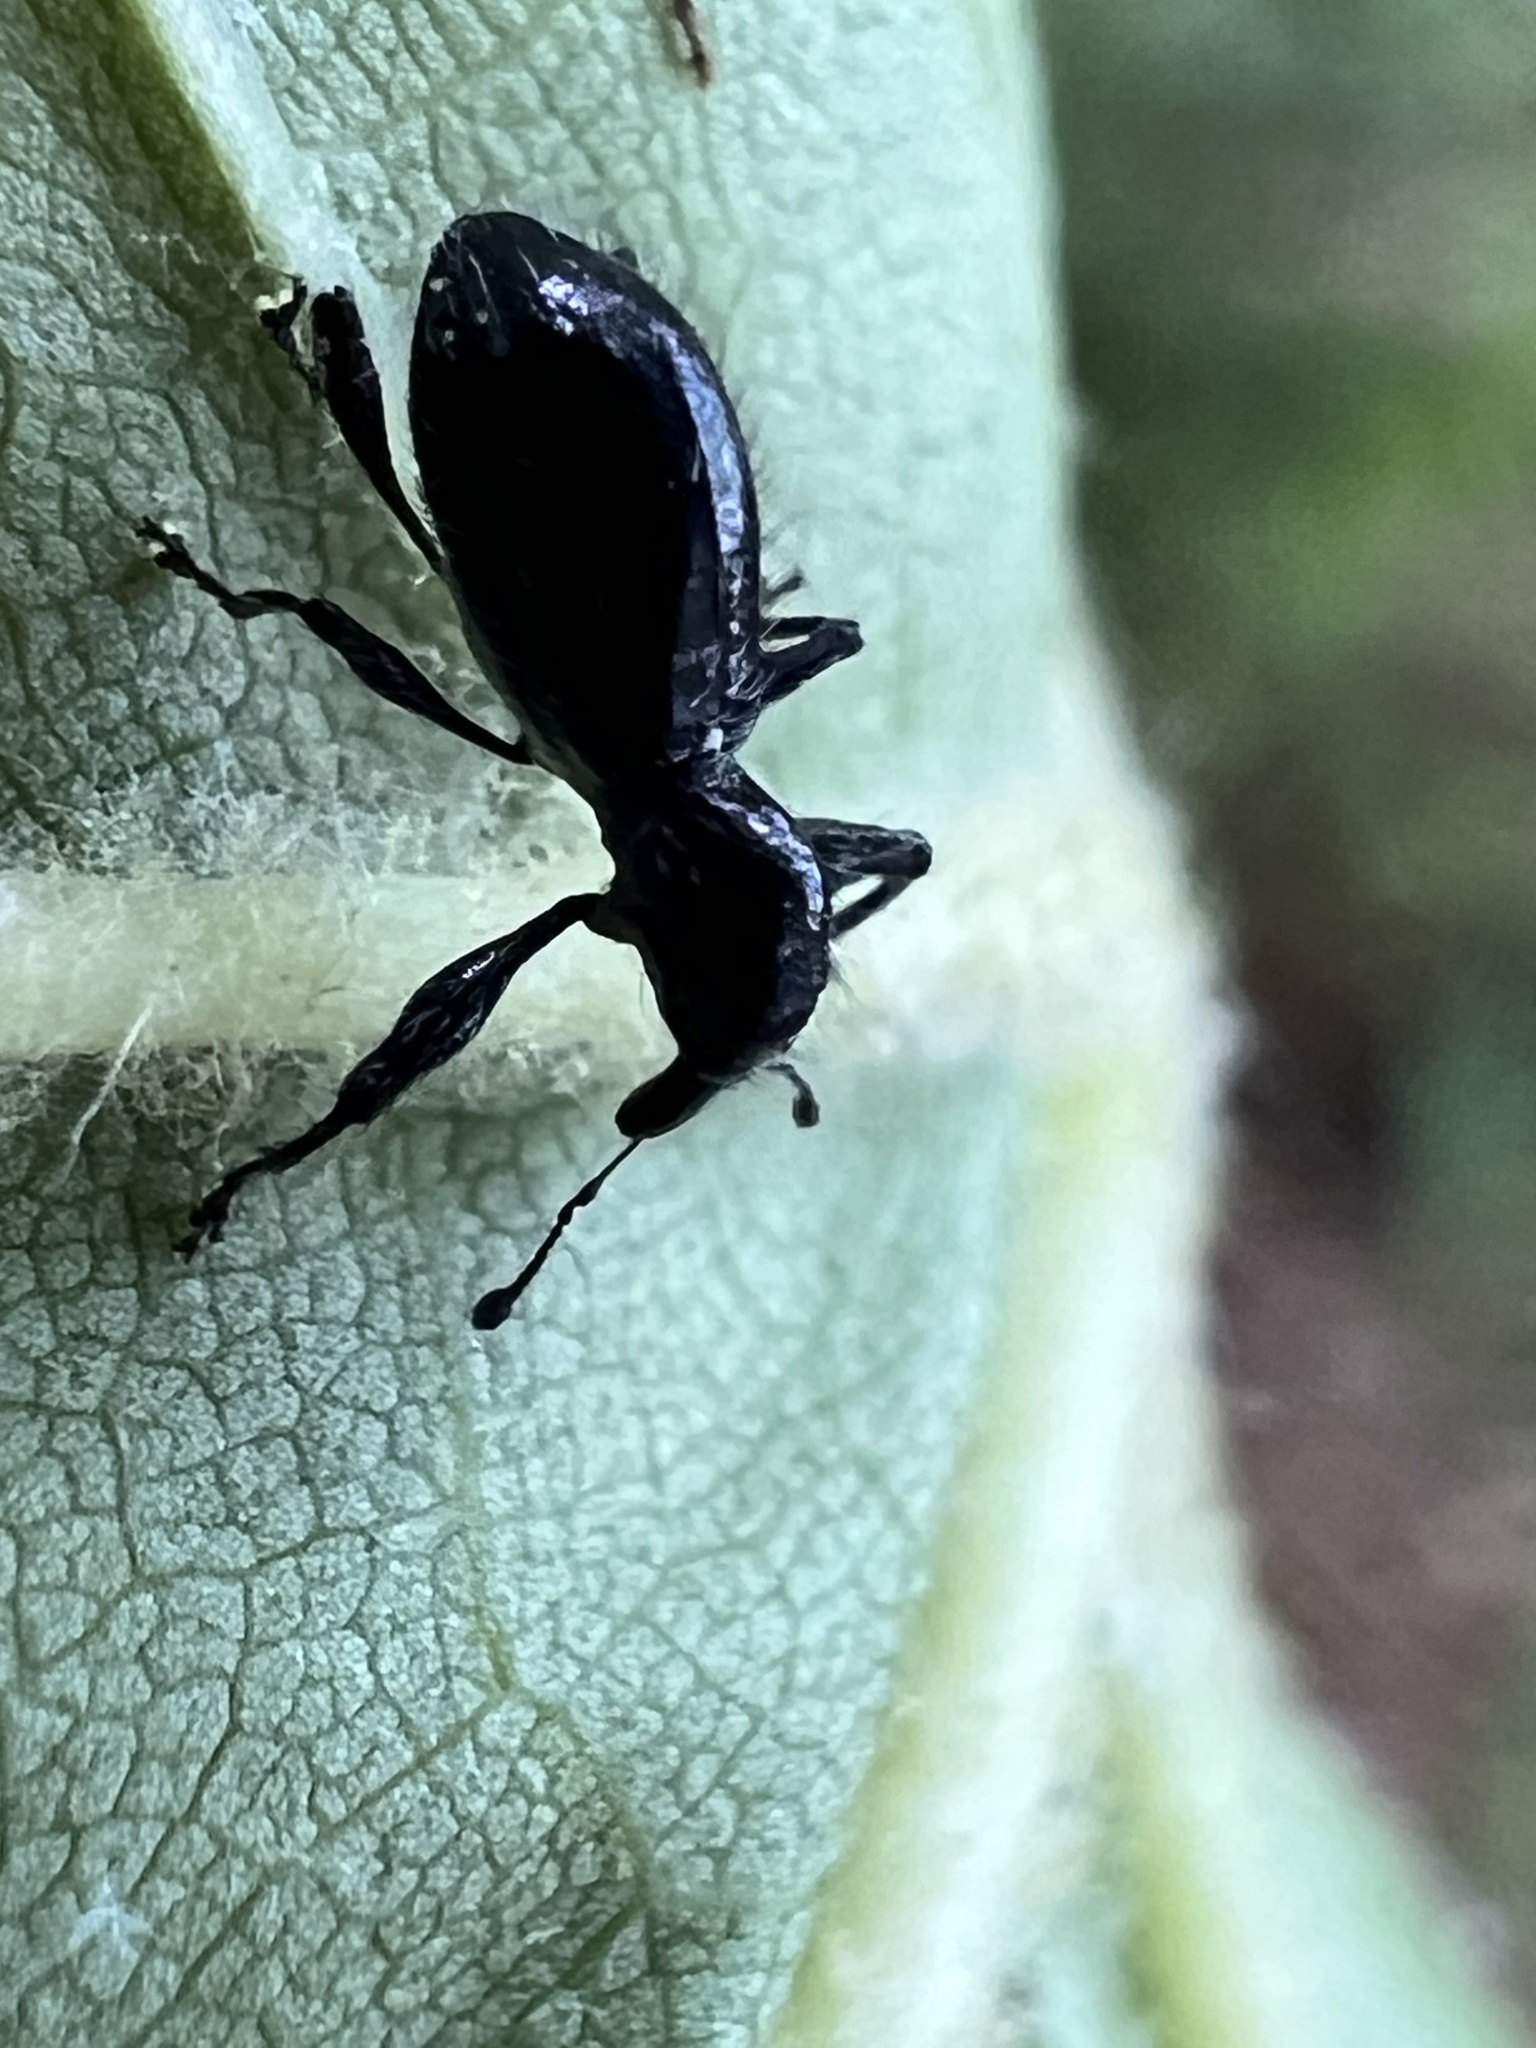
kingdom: Animalia
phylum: Arthropoda
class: Insecta
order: Coleoptera
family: Curculionidae
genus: Myrmex
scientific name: Myrmex myrmex
